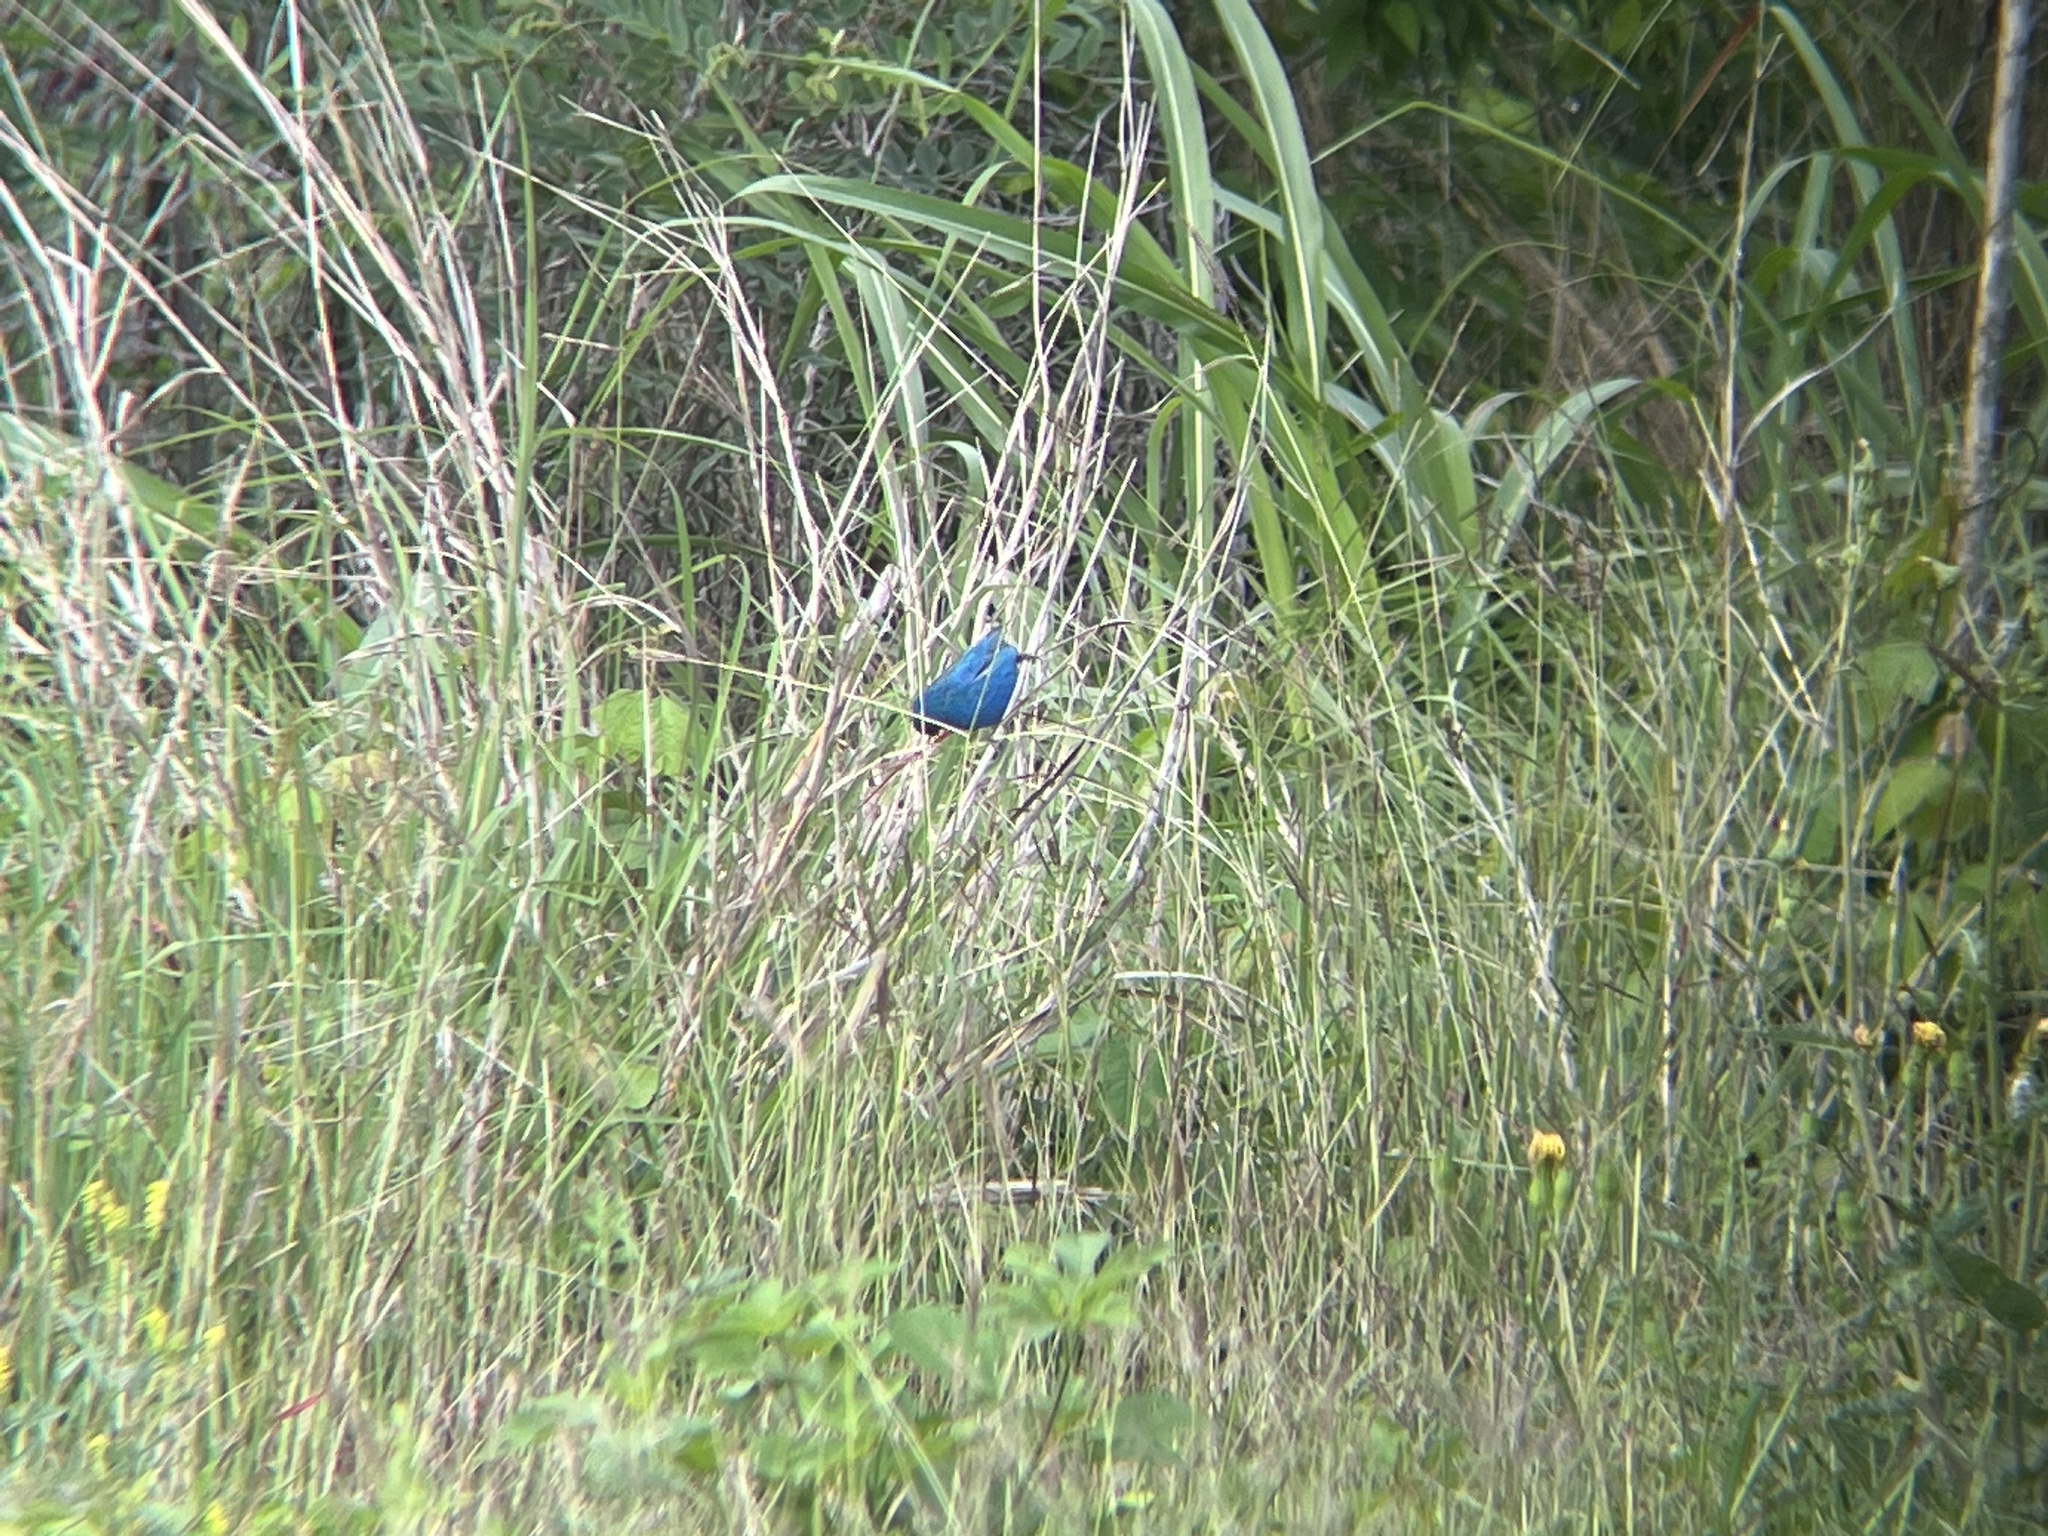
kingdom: Animalia
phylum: Chordata
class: Aves
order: Passeriformes
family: Cardinalidae
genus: Passerina
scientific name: Passerina cyanea
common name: Indigo bunting
